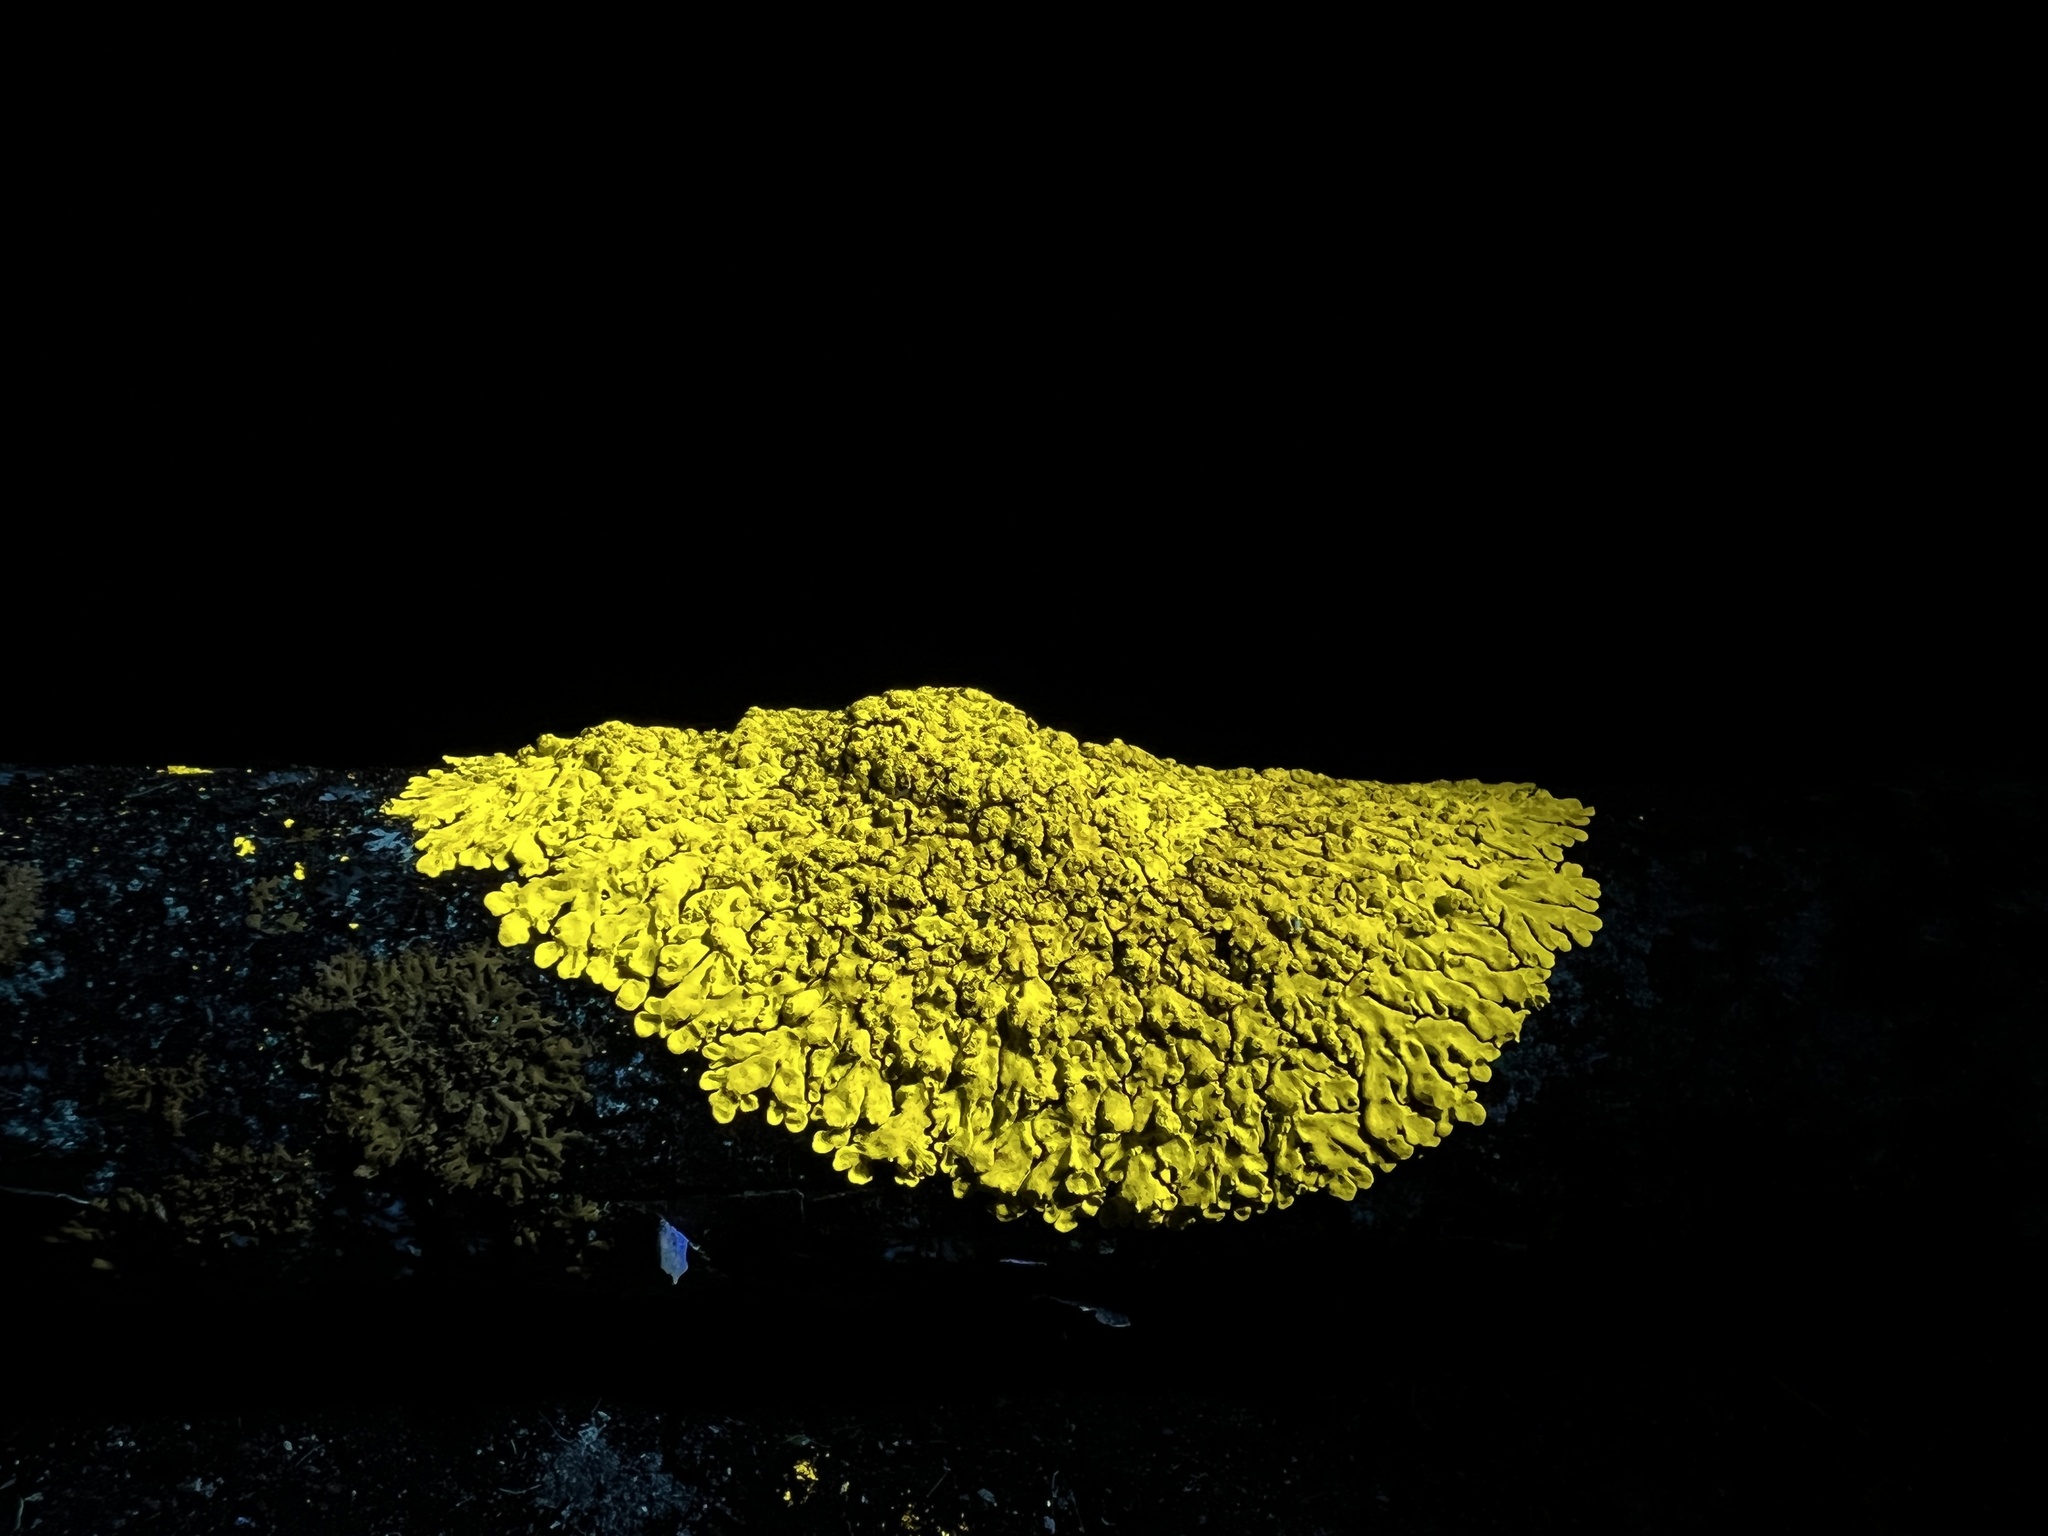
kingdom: Fungi
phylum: Ascomycota
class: Lecanoromycetes
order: Caliciales
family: Caliciaceae
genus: Pyxine
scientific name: Pyxine subcinerea
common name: Mustard lichen
